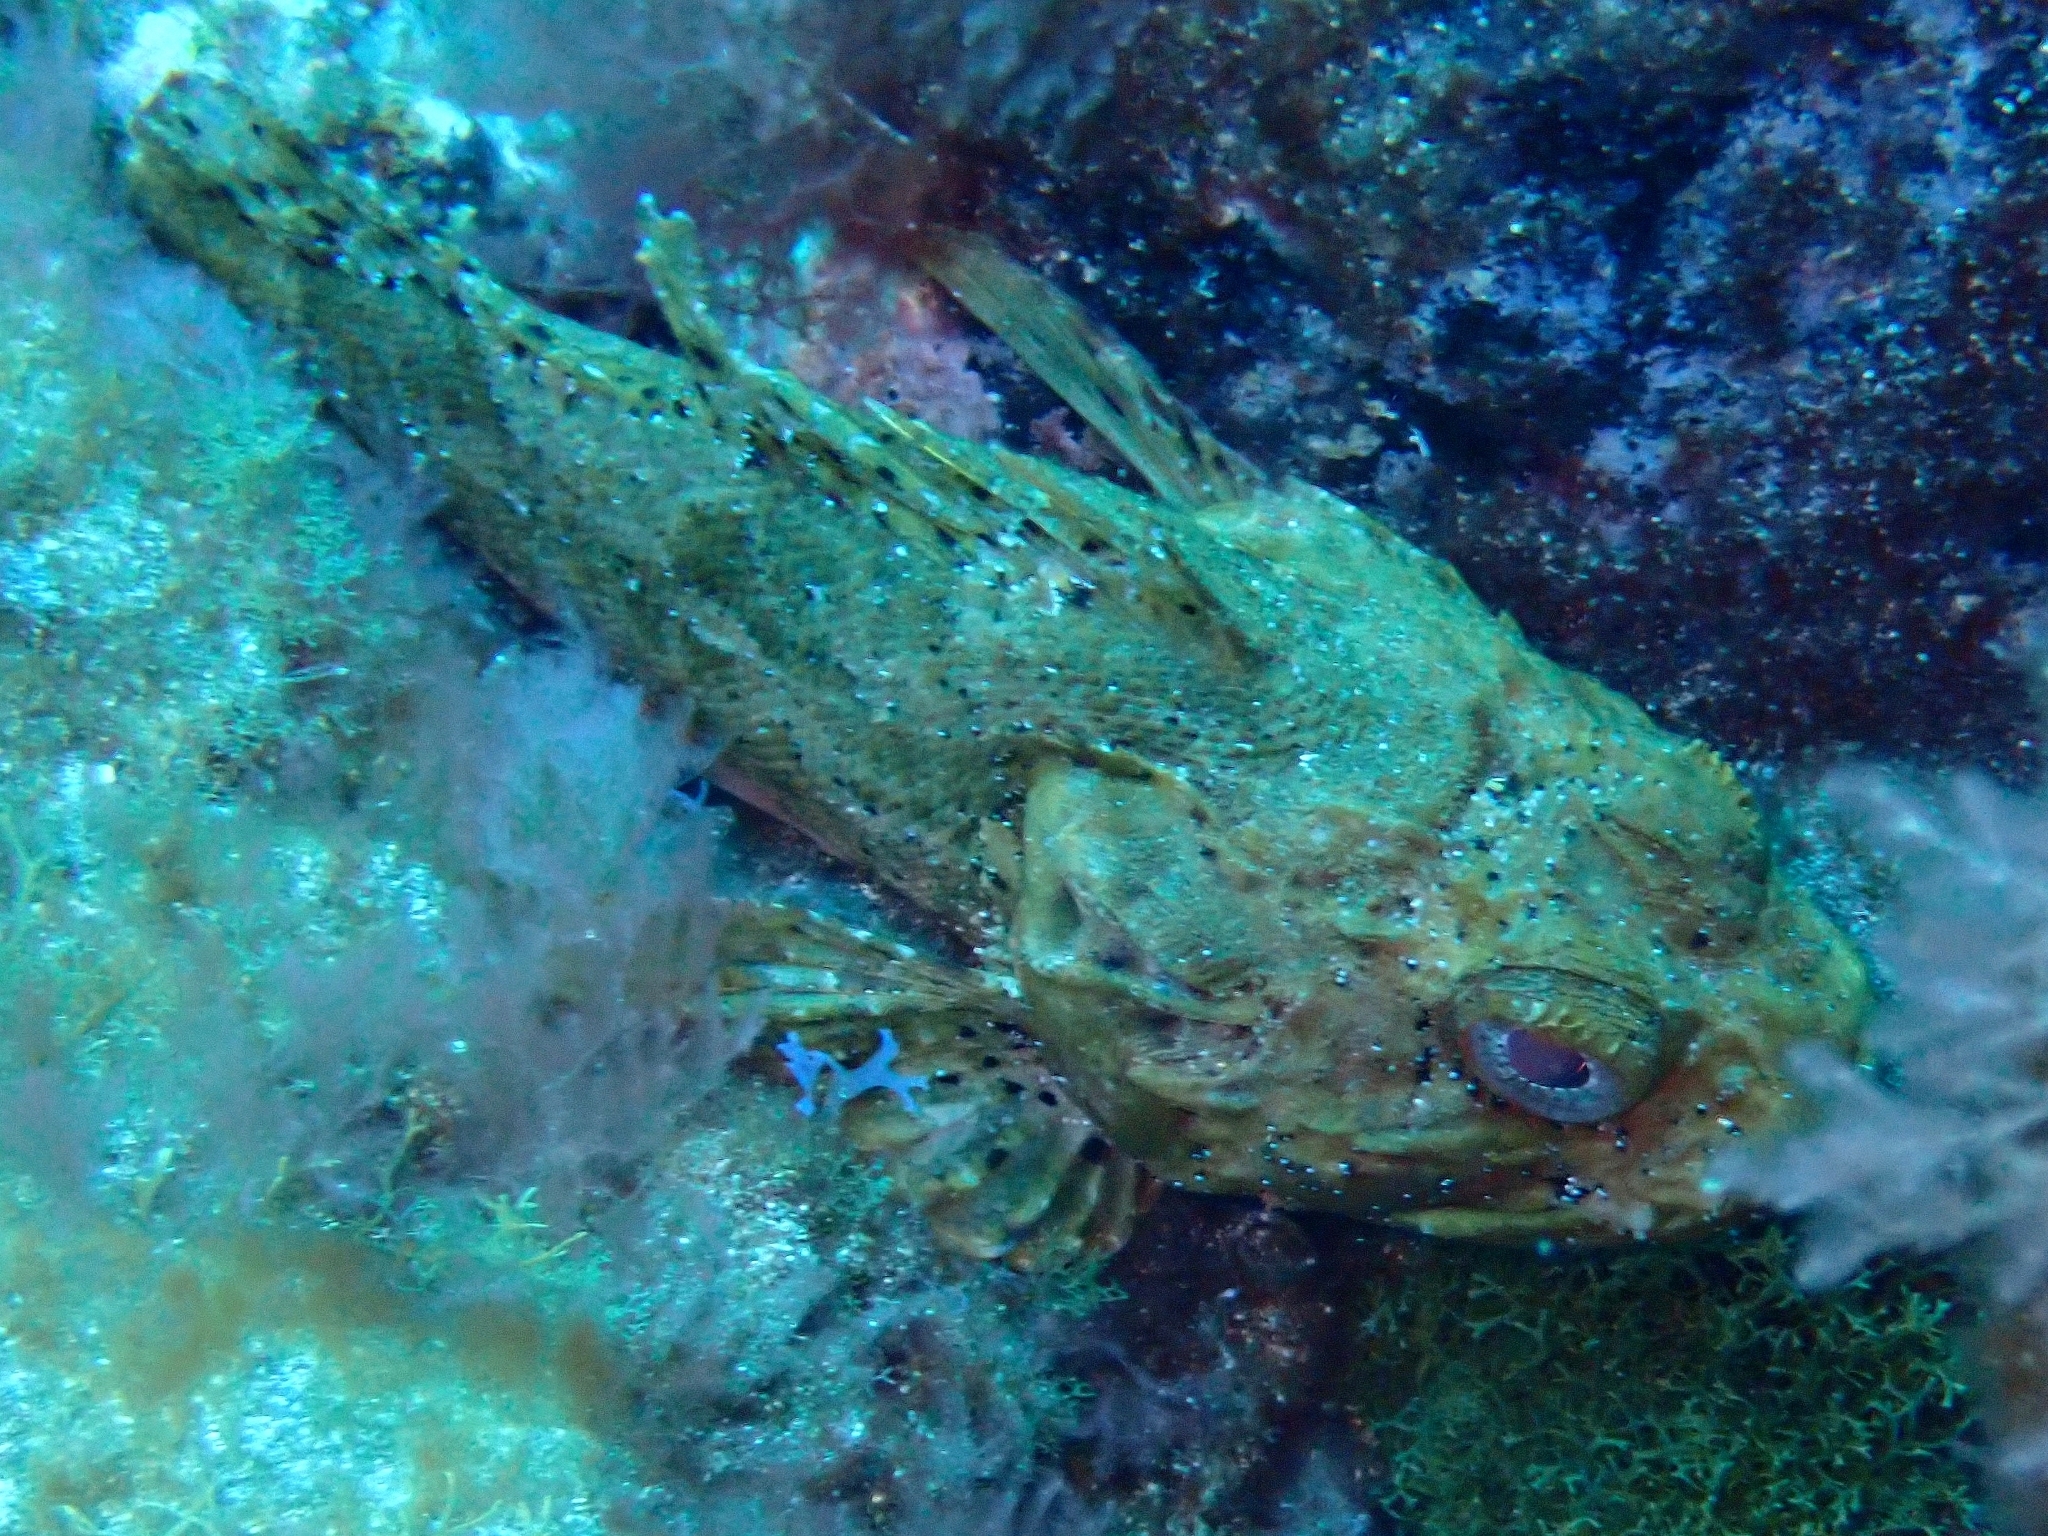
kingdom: Animalia
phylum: Chordata
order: Scorpaeniformes
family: Scorpaenidae
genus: Scorpaena
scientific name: Scorpaena porcus
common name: Black scorpionfish
